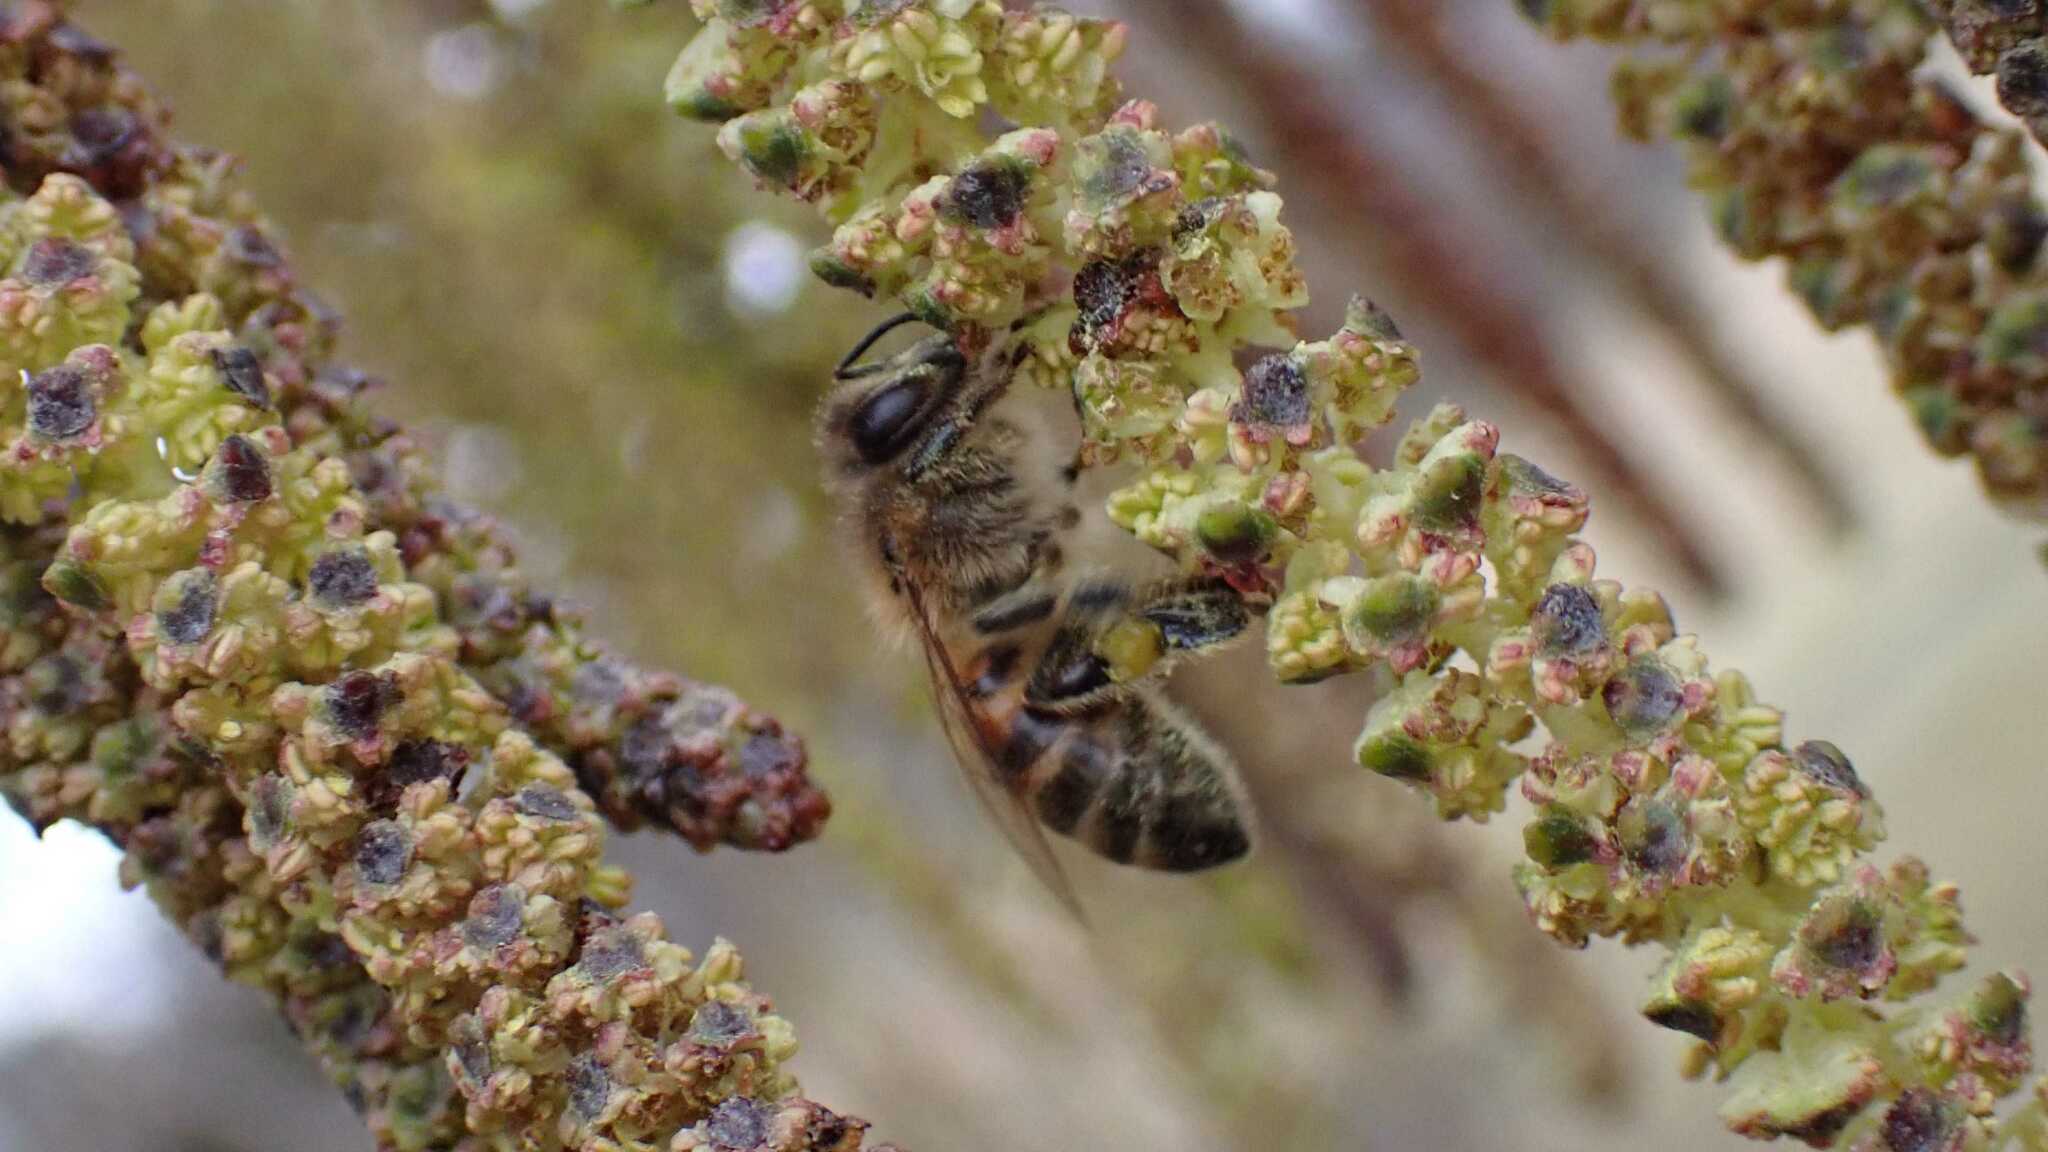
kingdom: Animalia
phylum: Arthropoda
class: Insecta
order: Hymenoptera
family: Apidae
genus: Apis
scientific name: Apis mellifera
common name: Honey bee
